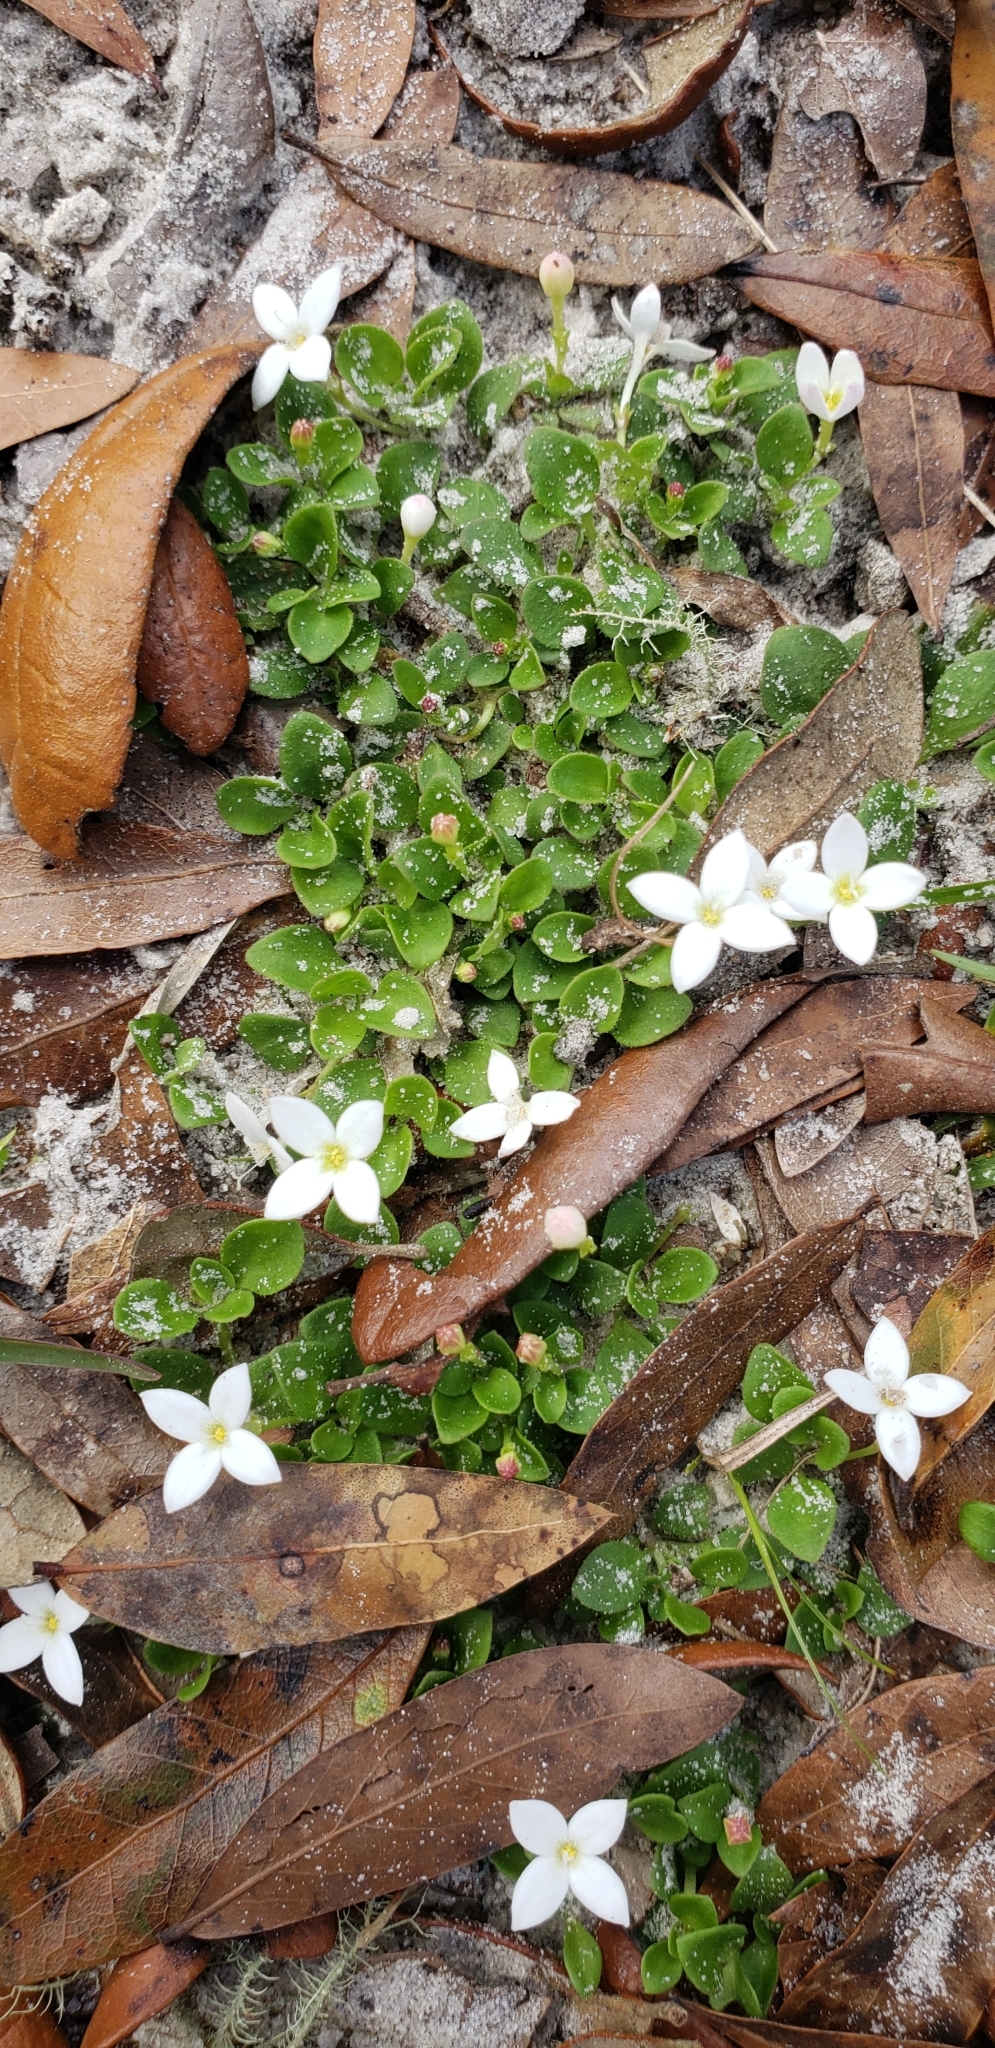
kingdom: Plantae
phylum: Tracheophyta
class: Magnoliopsida
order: Gentianales
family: Rubiaceae
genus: Houstonia
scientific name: Houstonia procumbens
